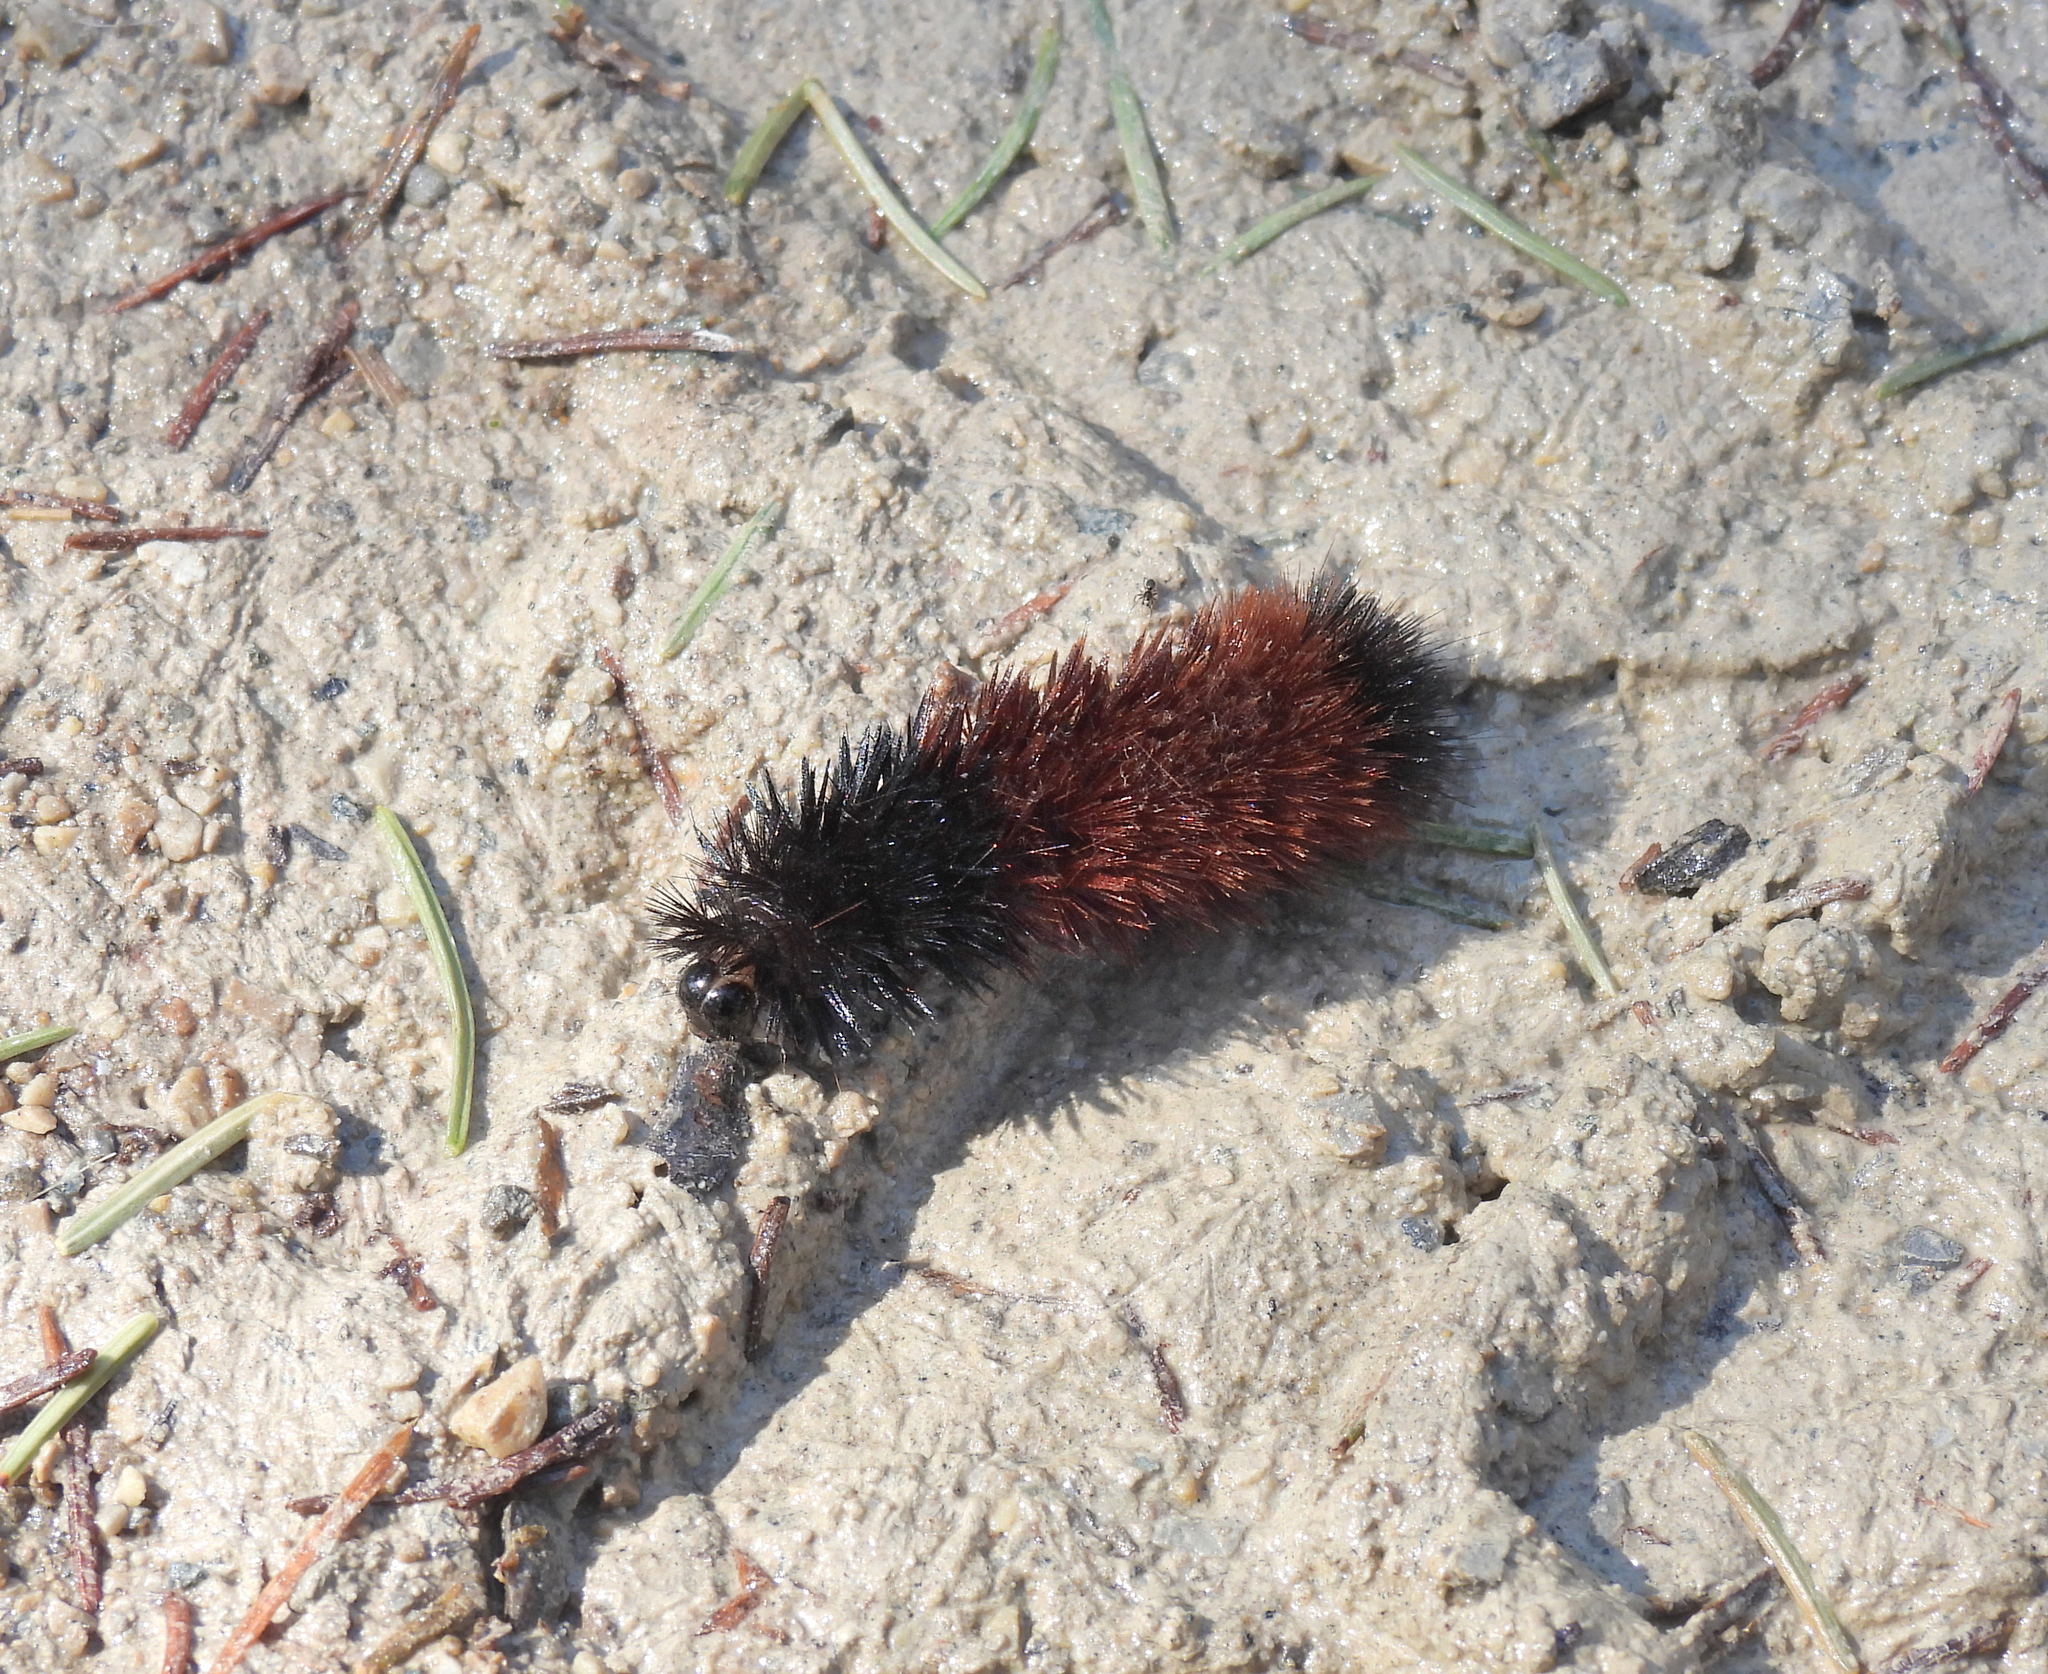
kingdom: Animalia
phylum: Arthropoda
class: Insecta
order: Lepidoptera
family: Erebidae
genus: Pyrrharctia
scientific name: Pyrrharctia isabella
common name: Isabella tiger moth
